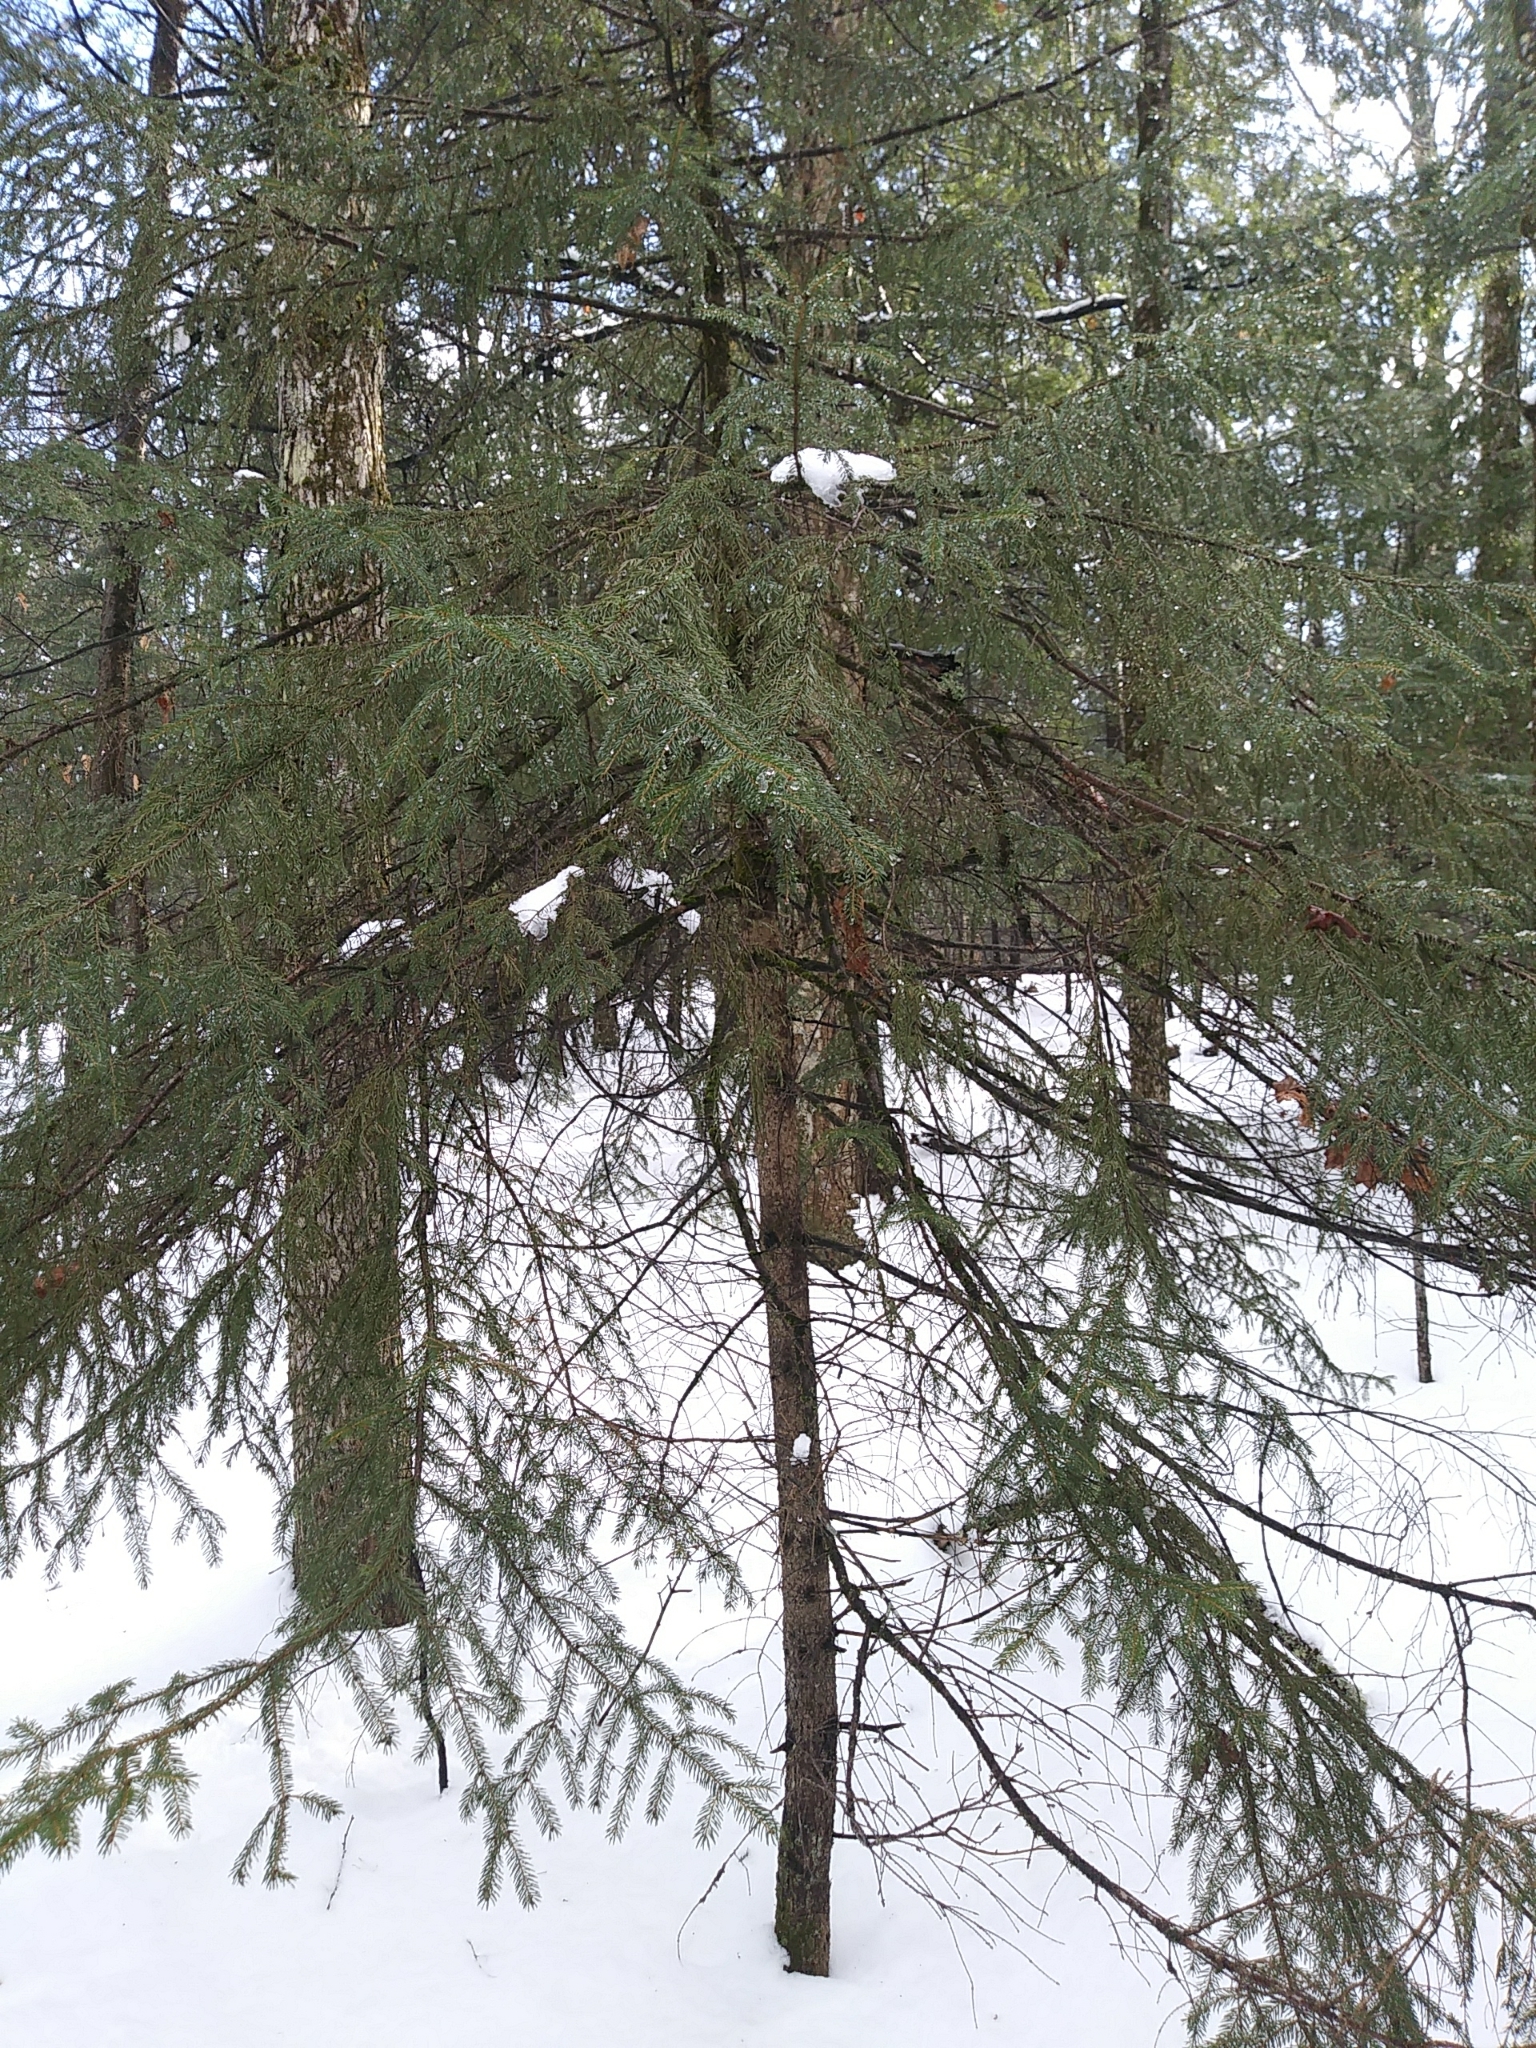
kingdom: Plantae
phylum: Tracheophyta
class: Pinopsida
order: Pinales
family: Pinaceae
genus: Picea
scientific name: Picea rubens
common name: Red spruce
